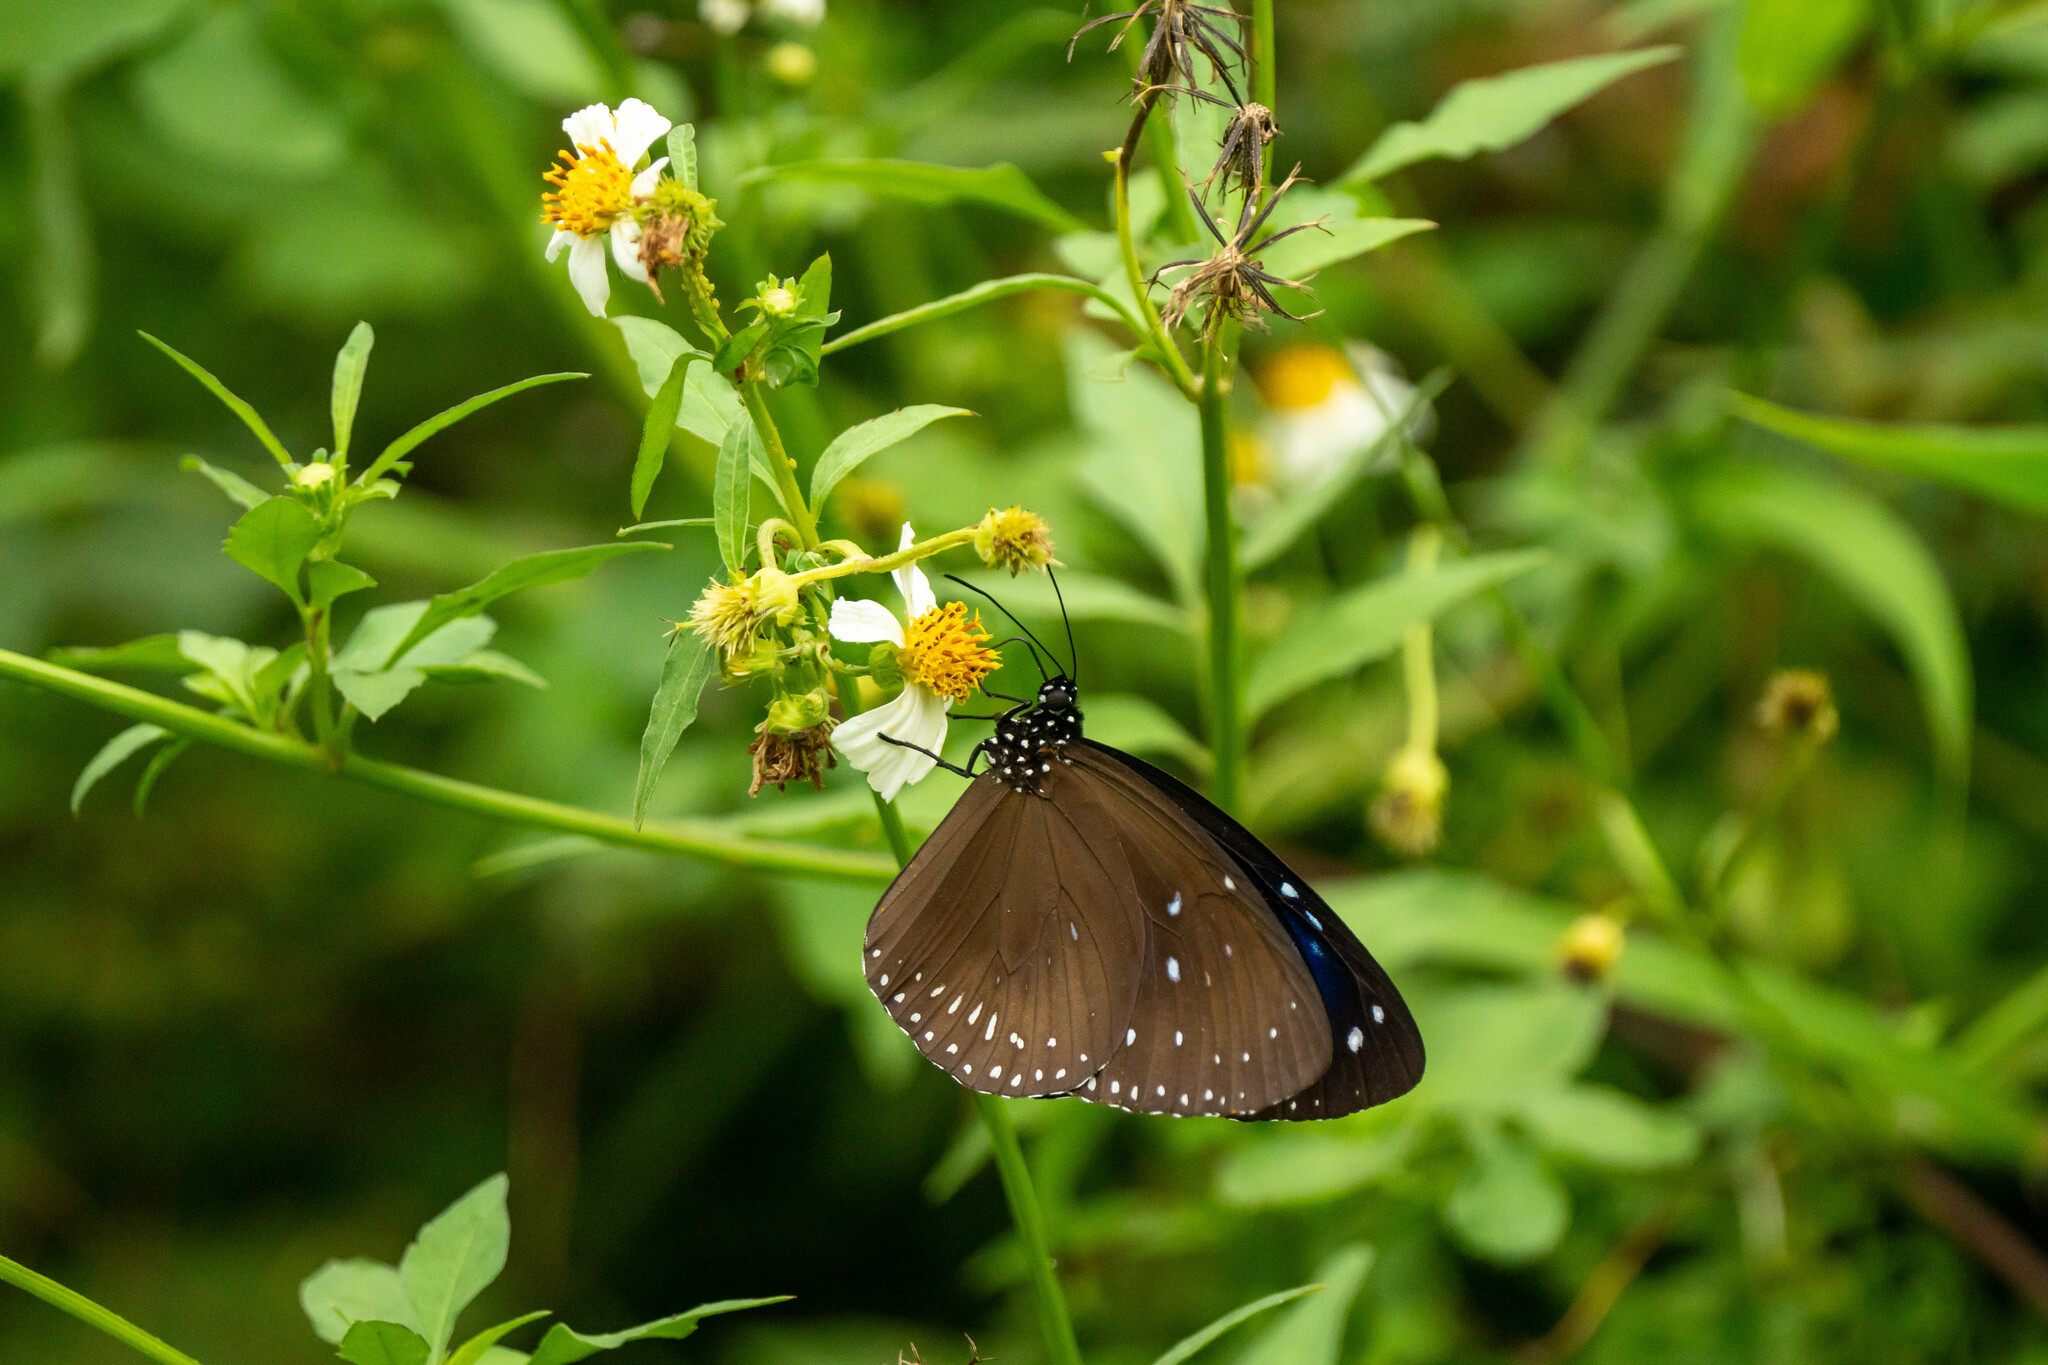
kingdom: Animalia
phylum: Arthropoda
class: Insecta
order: Lepidoptera
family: Nymphalidae
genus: Euploea
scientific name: Euploea midamus
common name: Blue-spotted crow butterfly
